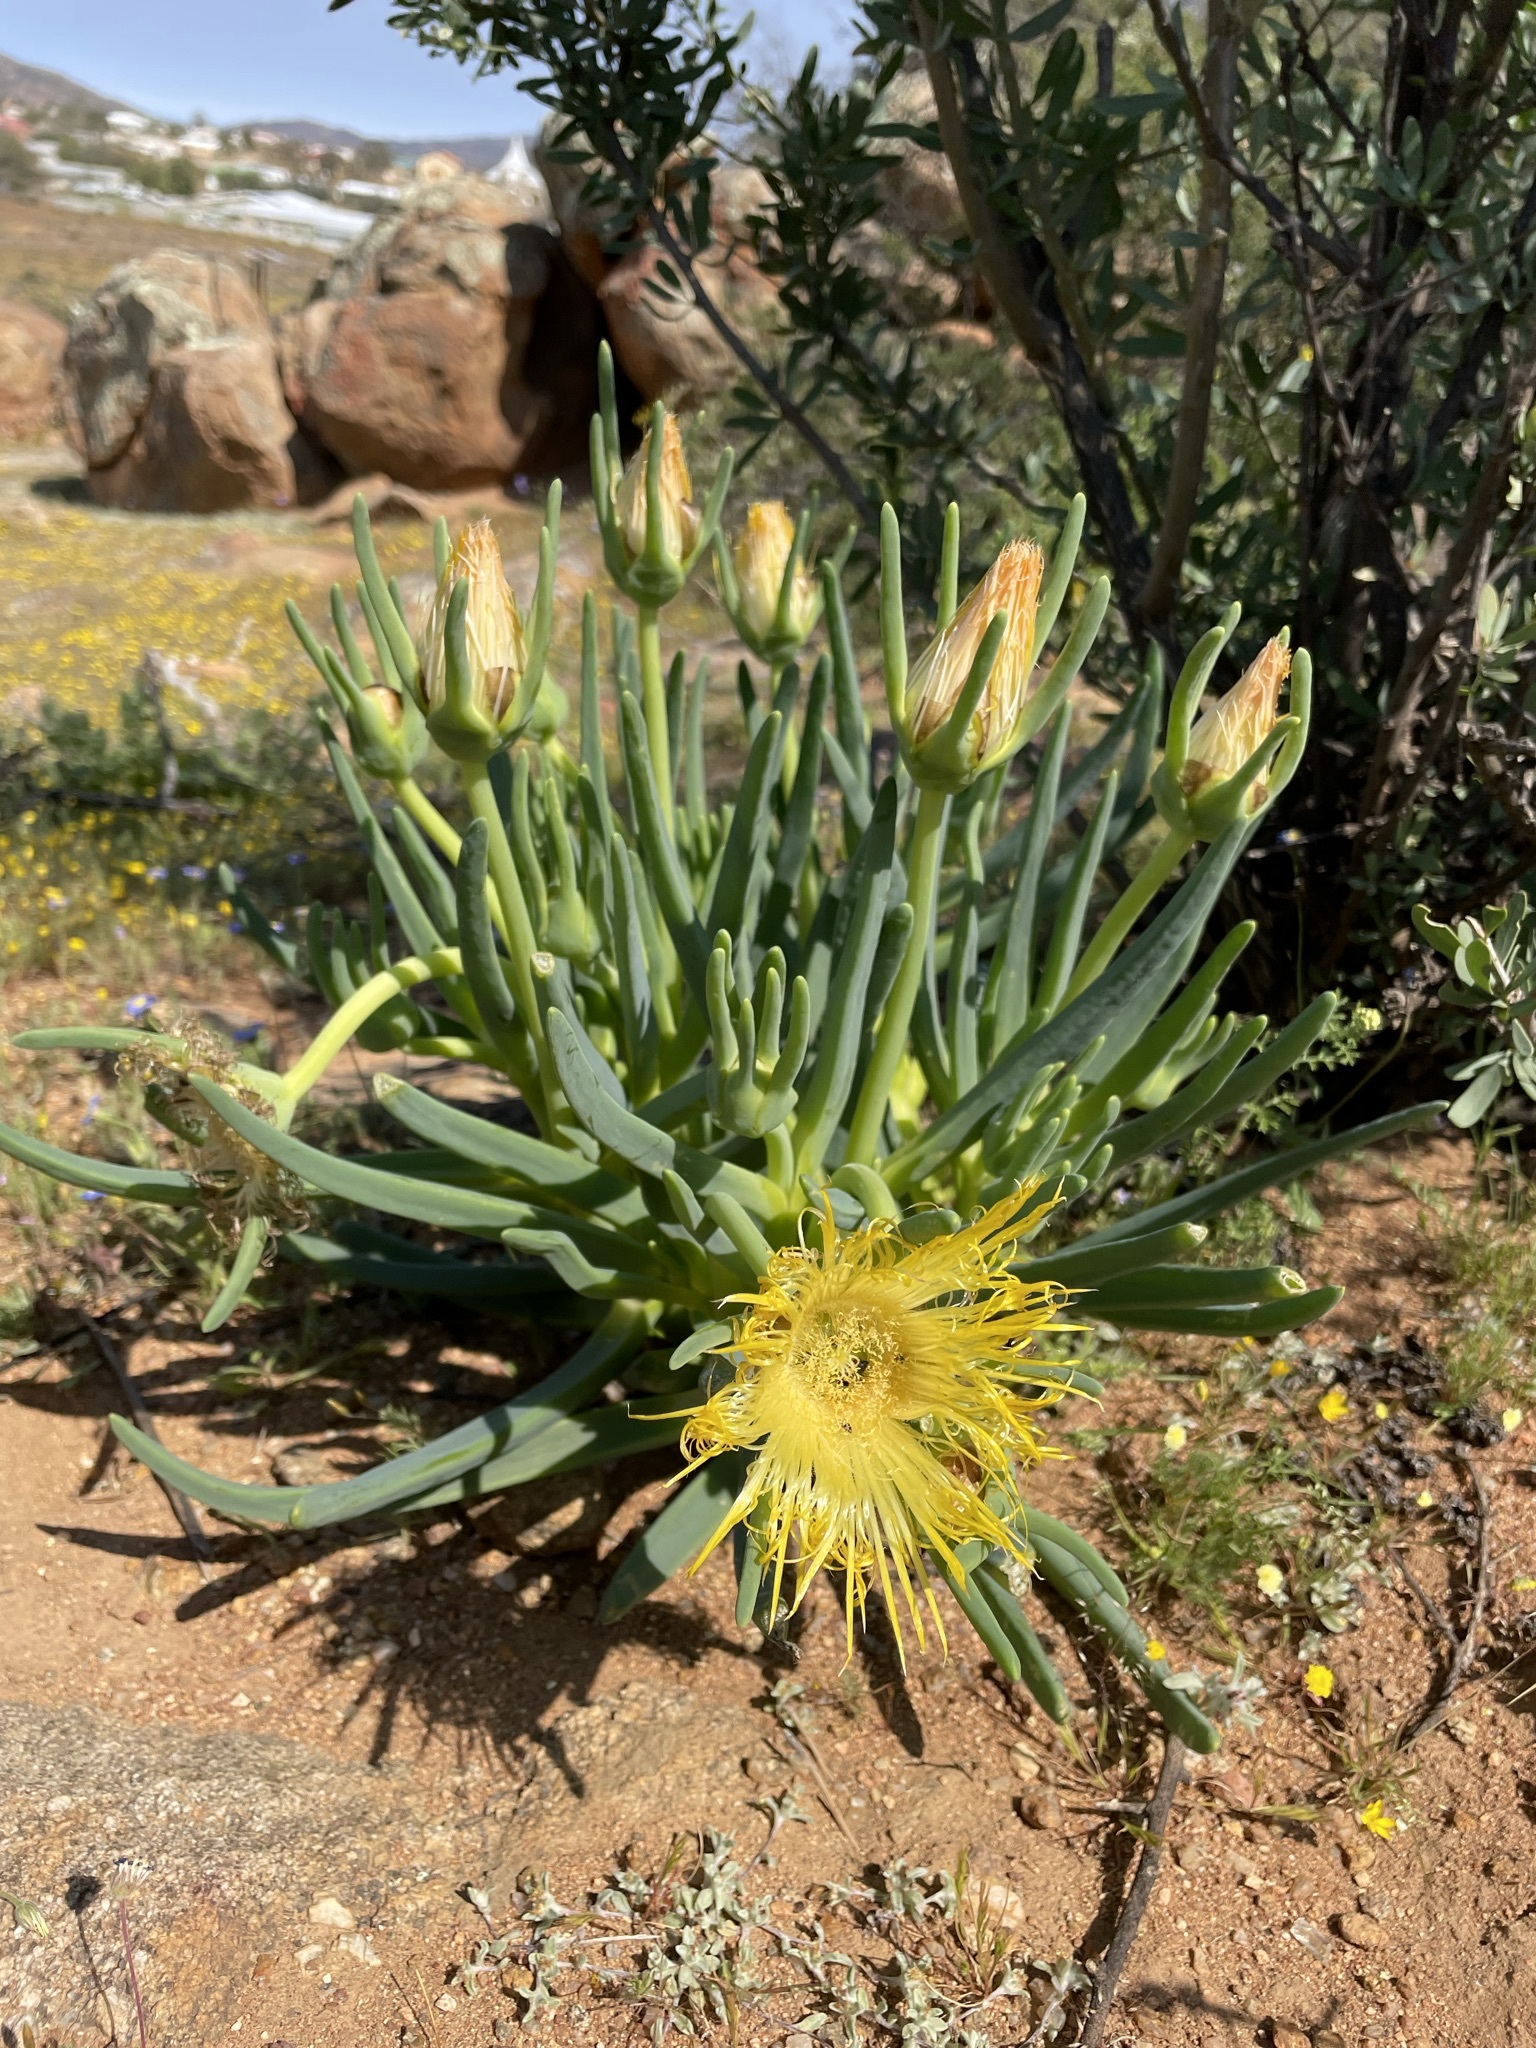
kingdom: Plantae
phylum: Tracheophyta
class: Magnoliopsida
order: Caryophyllales
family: Aizoaceae
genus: Conicosia
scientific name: Conicosia elongata
